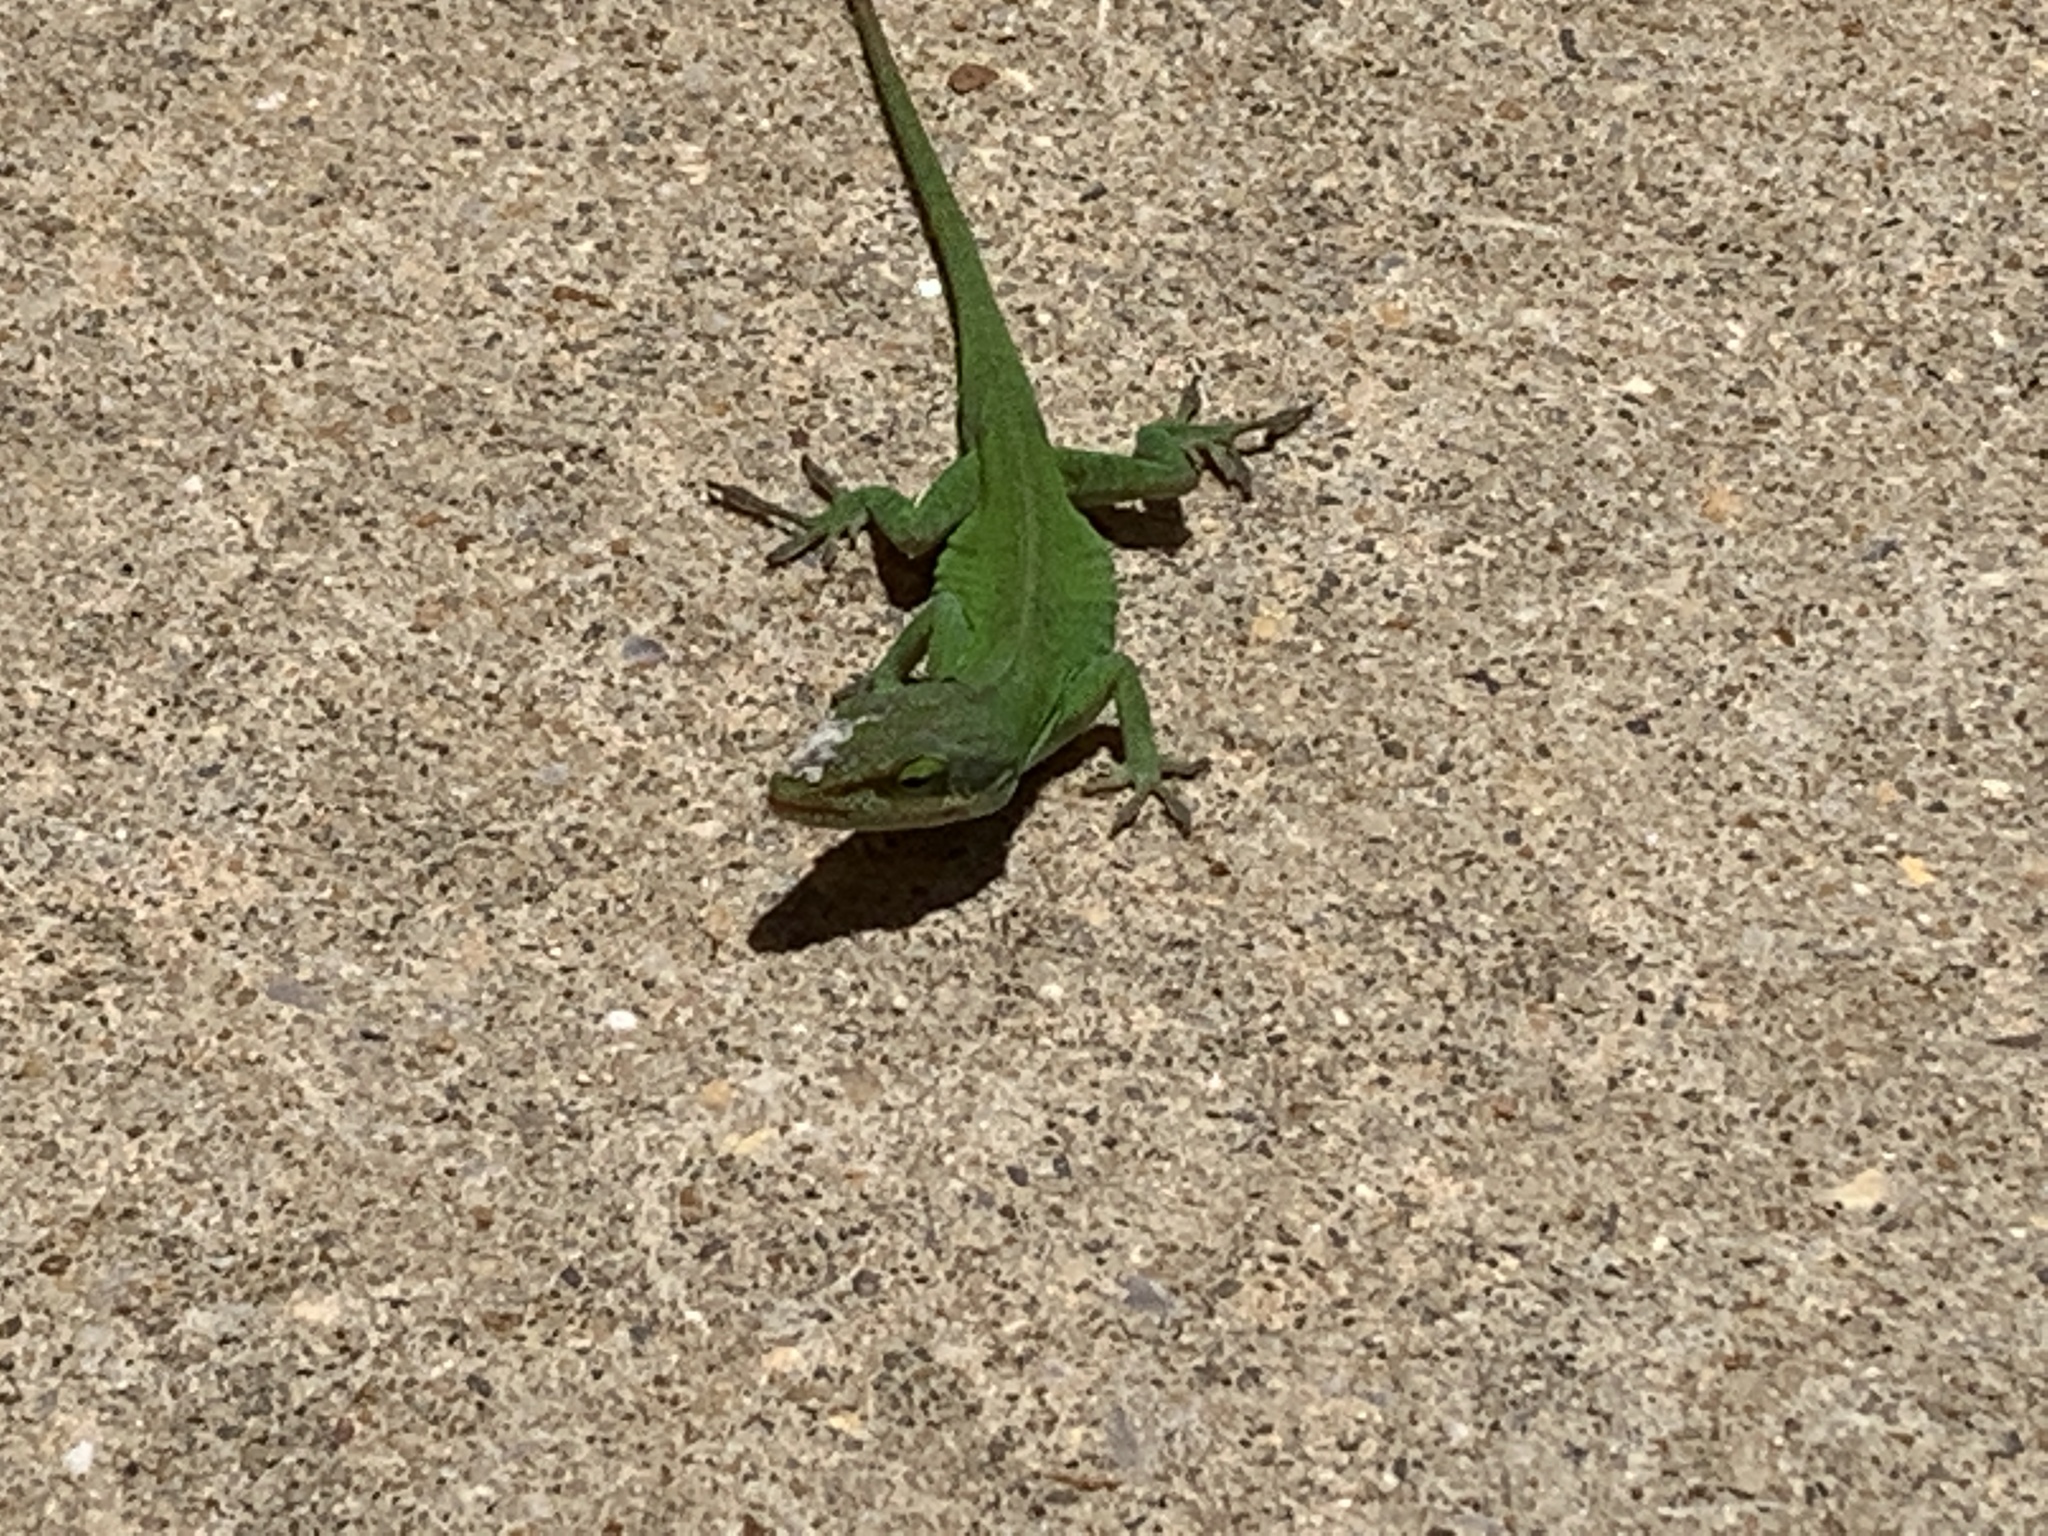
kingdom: Animalia
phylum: Chordata
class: Squamata
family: Dactyloidae
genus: Anolis
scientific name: Anolis carolinensis
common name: Green anole
